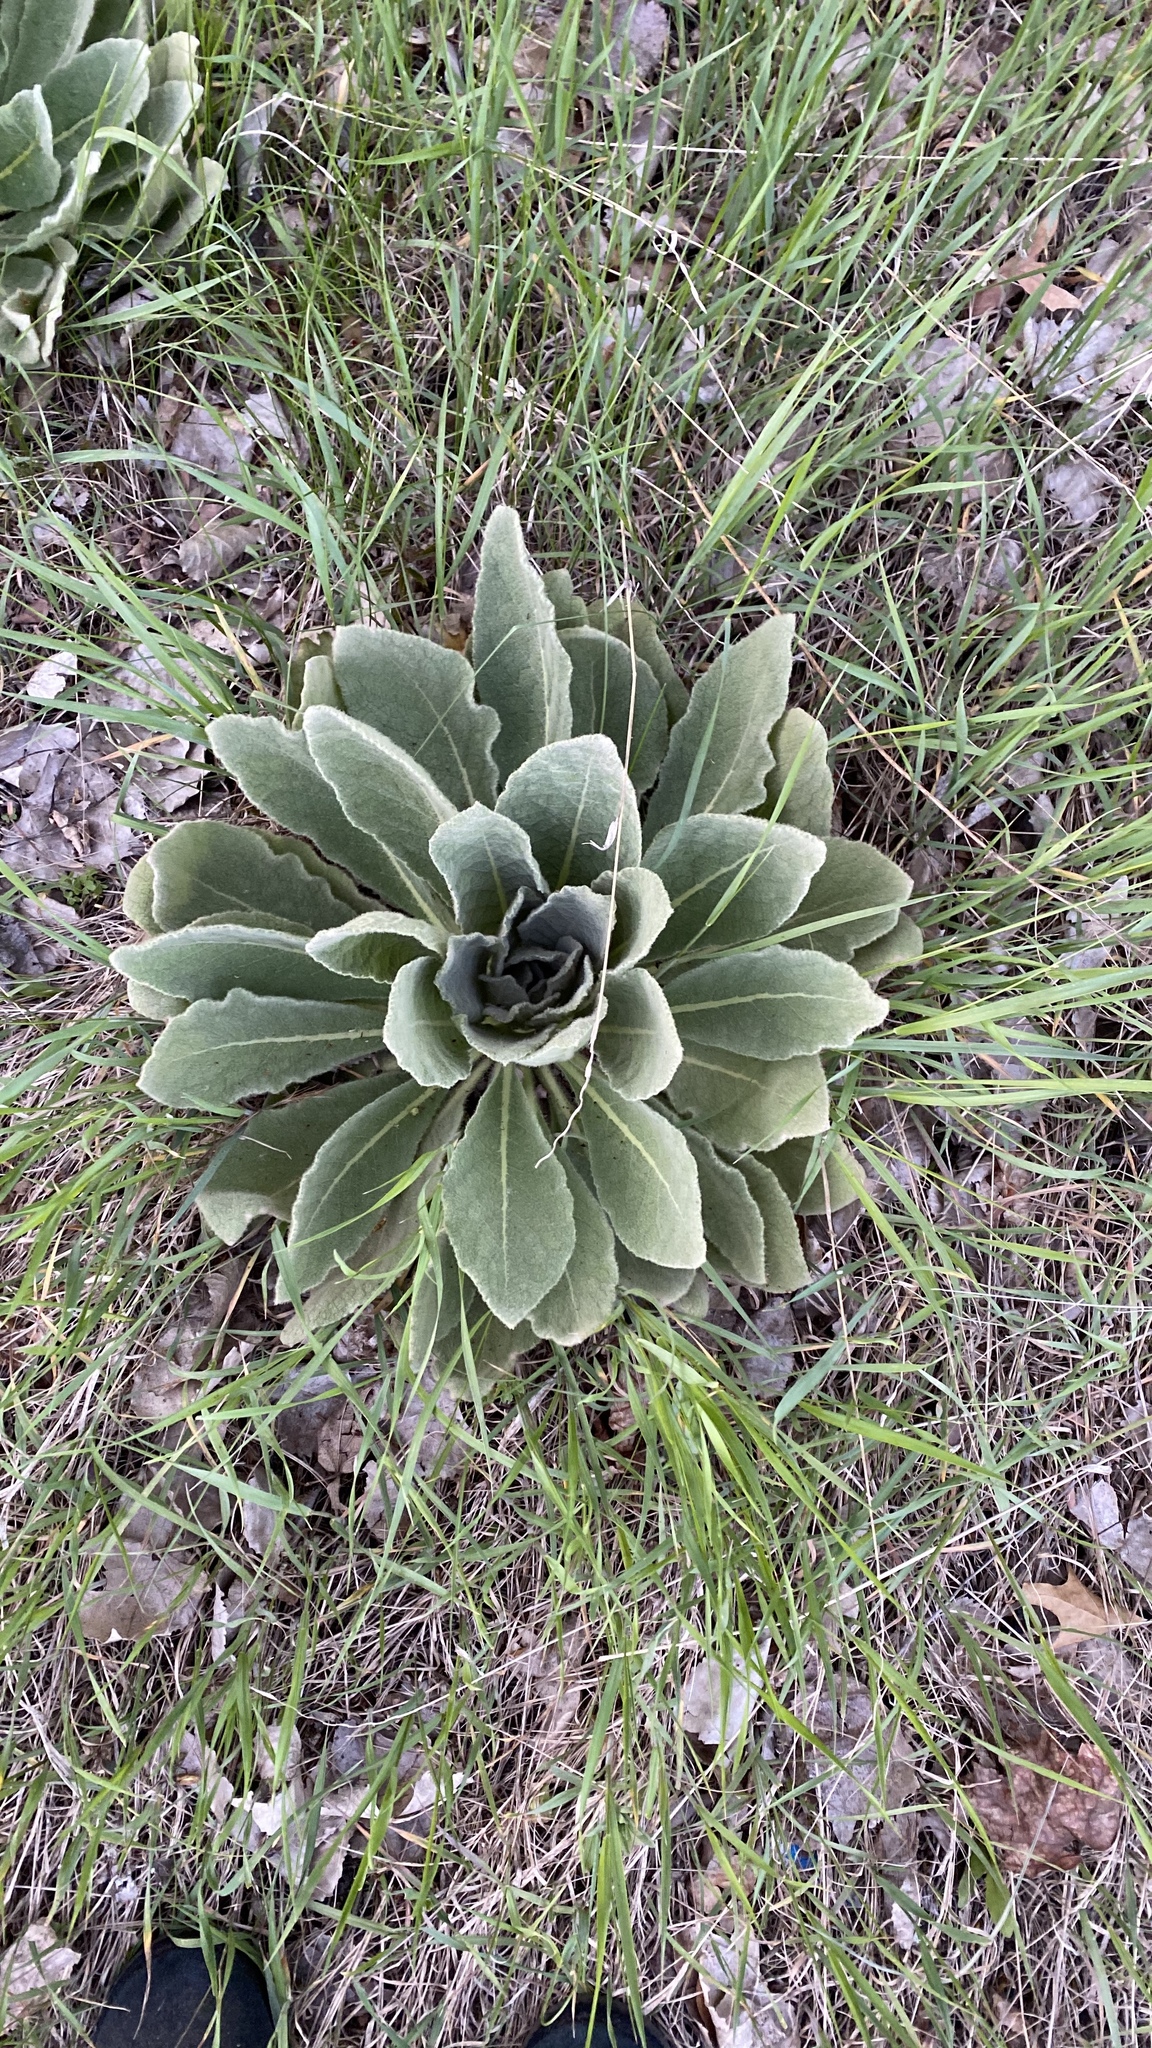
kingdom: Plantae
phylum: Tracheophyta
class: Magnoliopsida
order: Lamiales
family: Scrophulariaceae
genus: Verbascum
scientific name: Verbascum thapsus
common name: Common mullein
